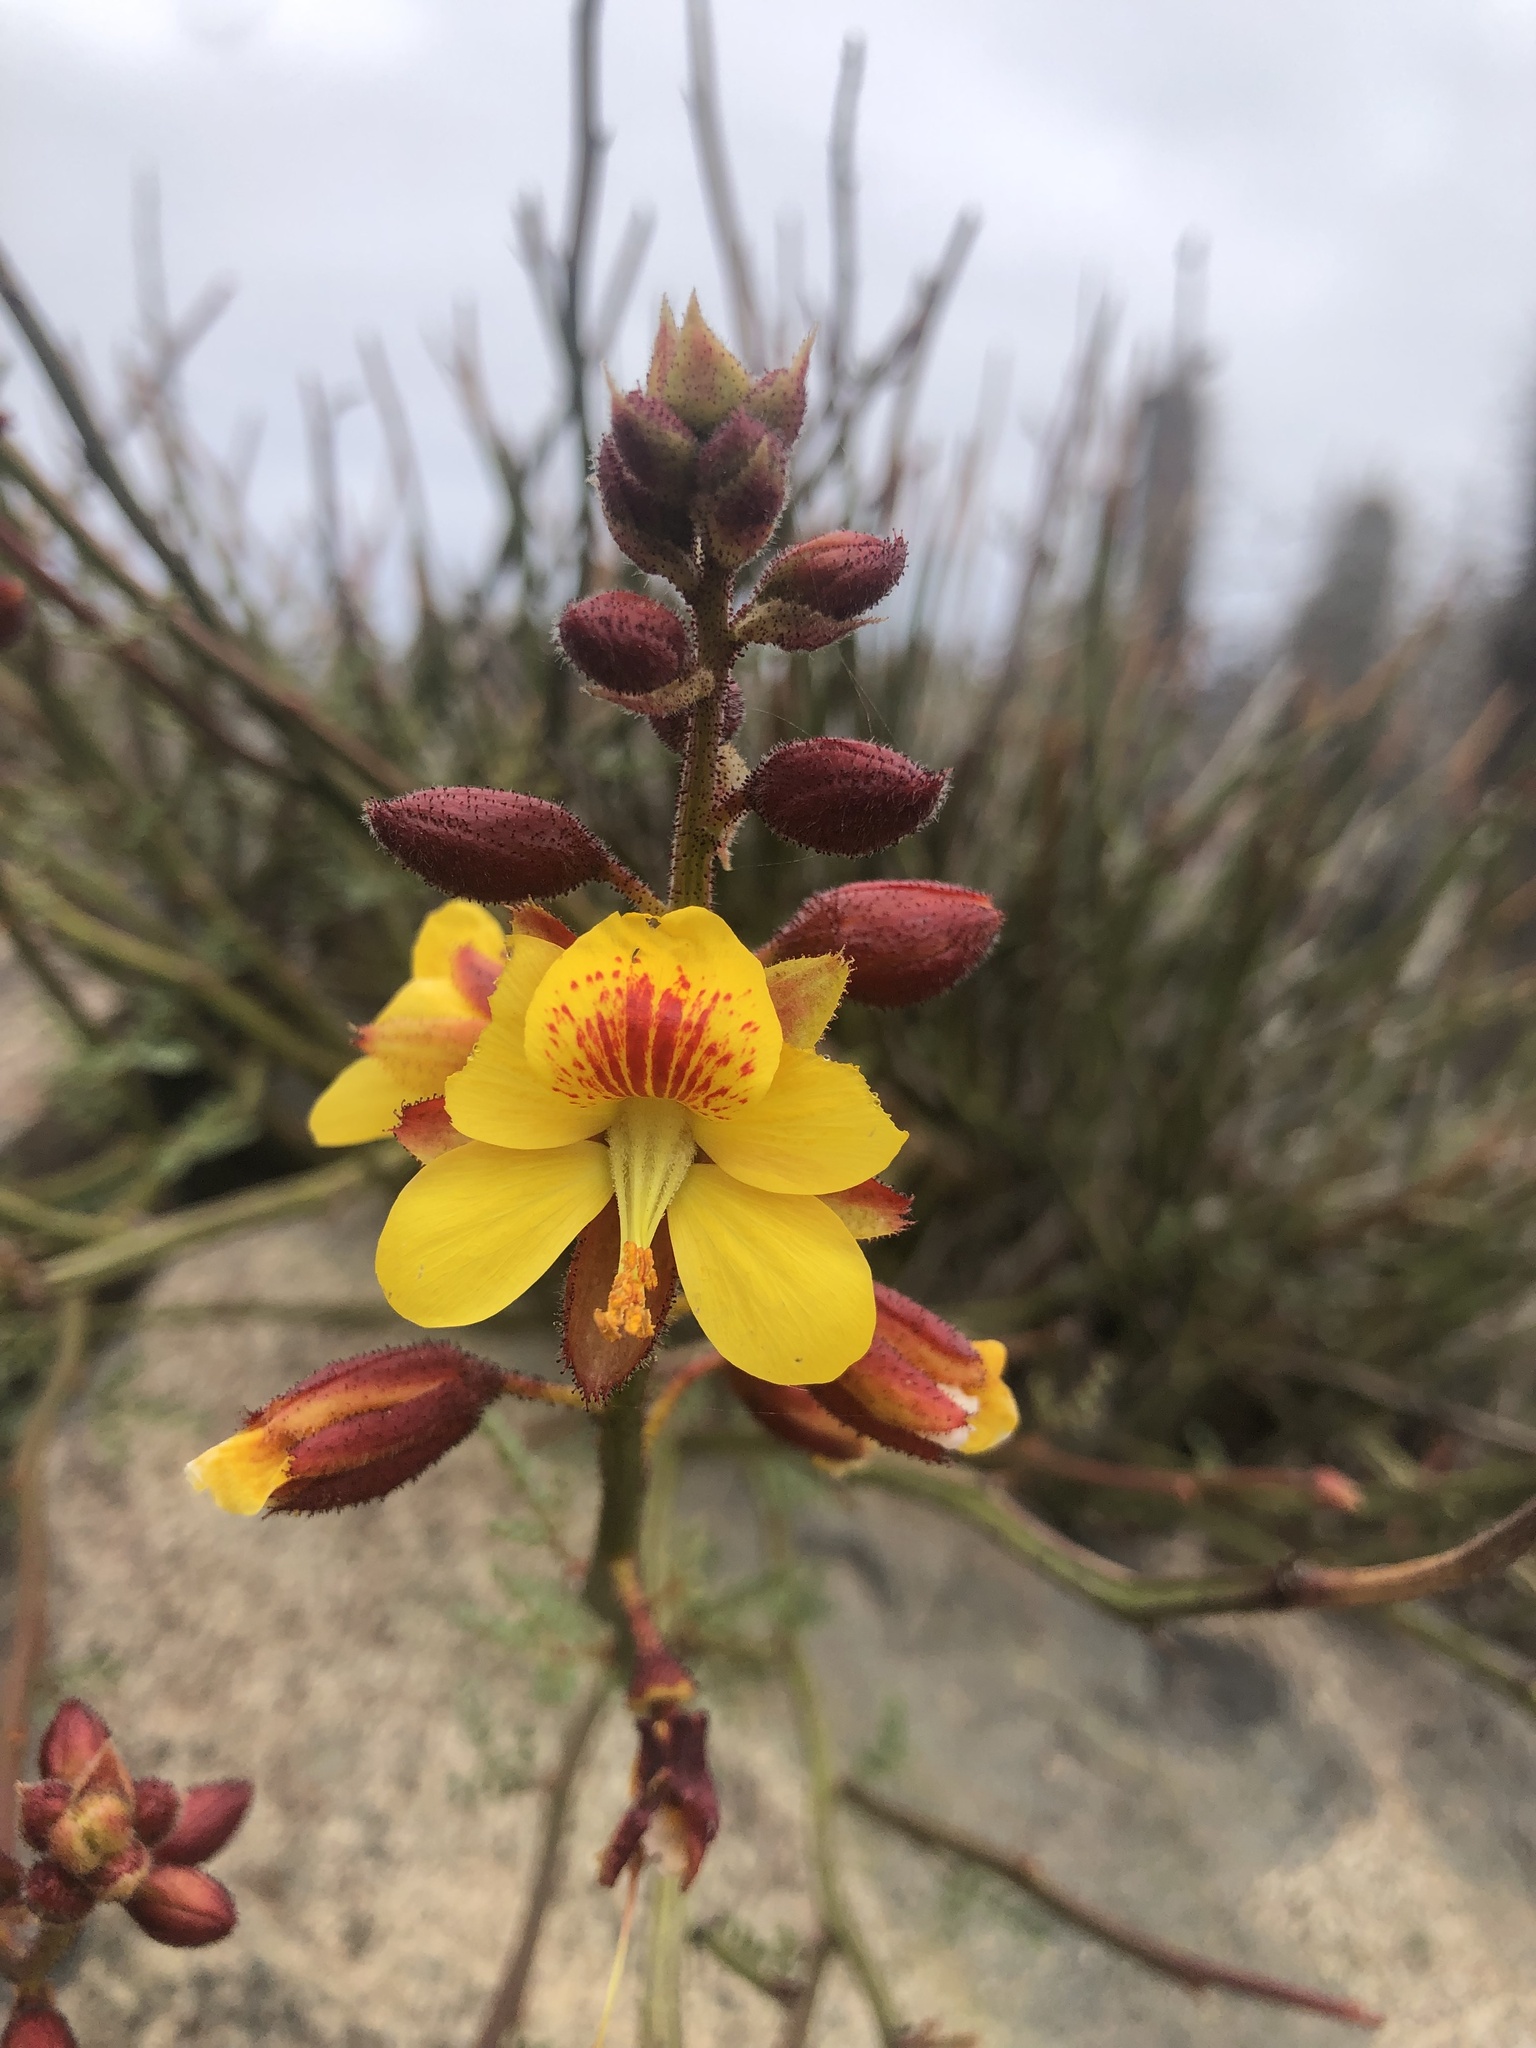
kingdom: Plantae
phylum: Tracheophyta
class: Magnoliopsida
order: Fabales
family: Fabaceae
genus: Erythrostemon
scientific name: Erythrostemon angulatus
